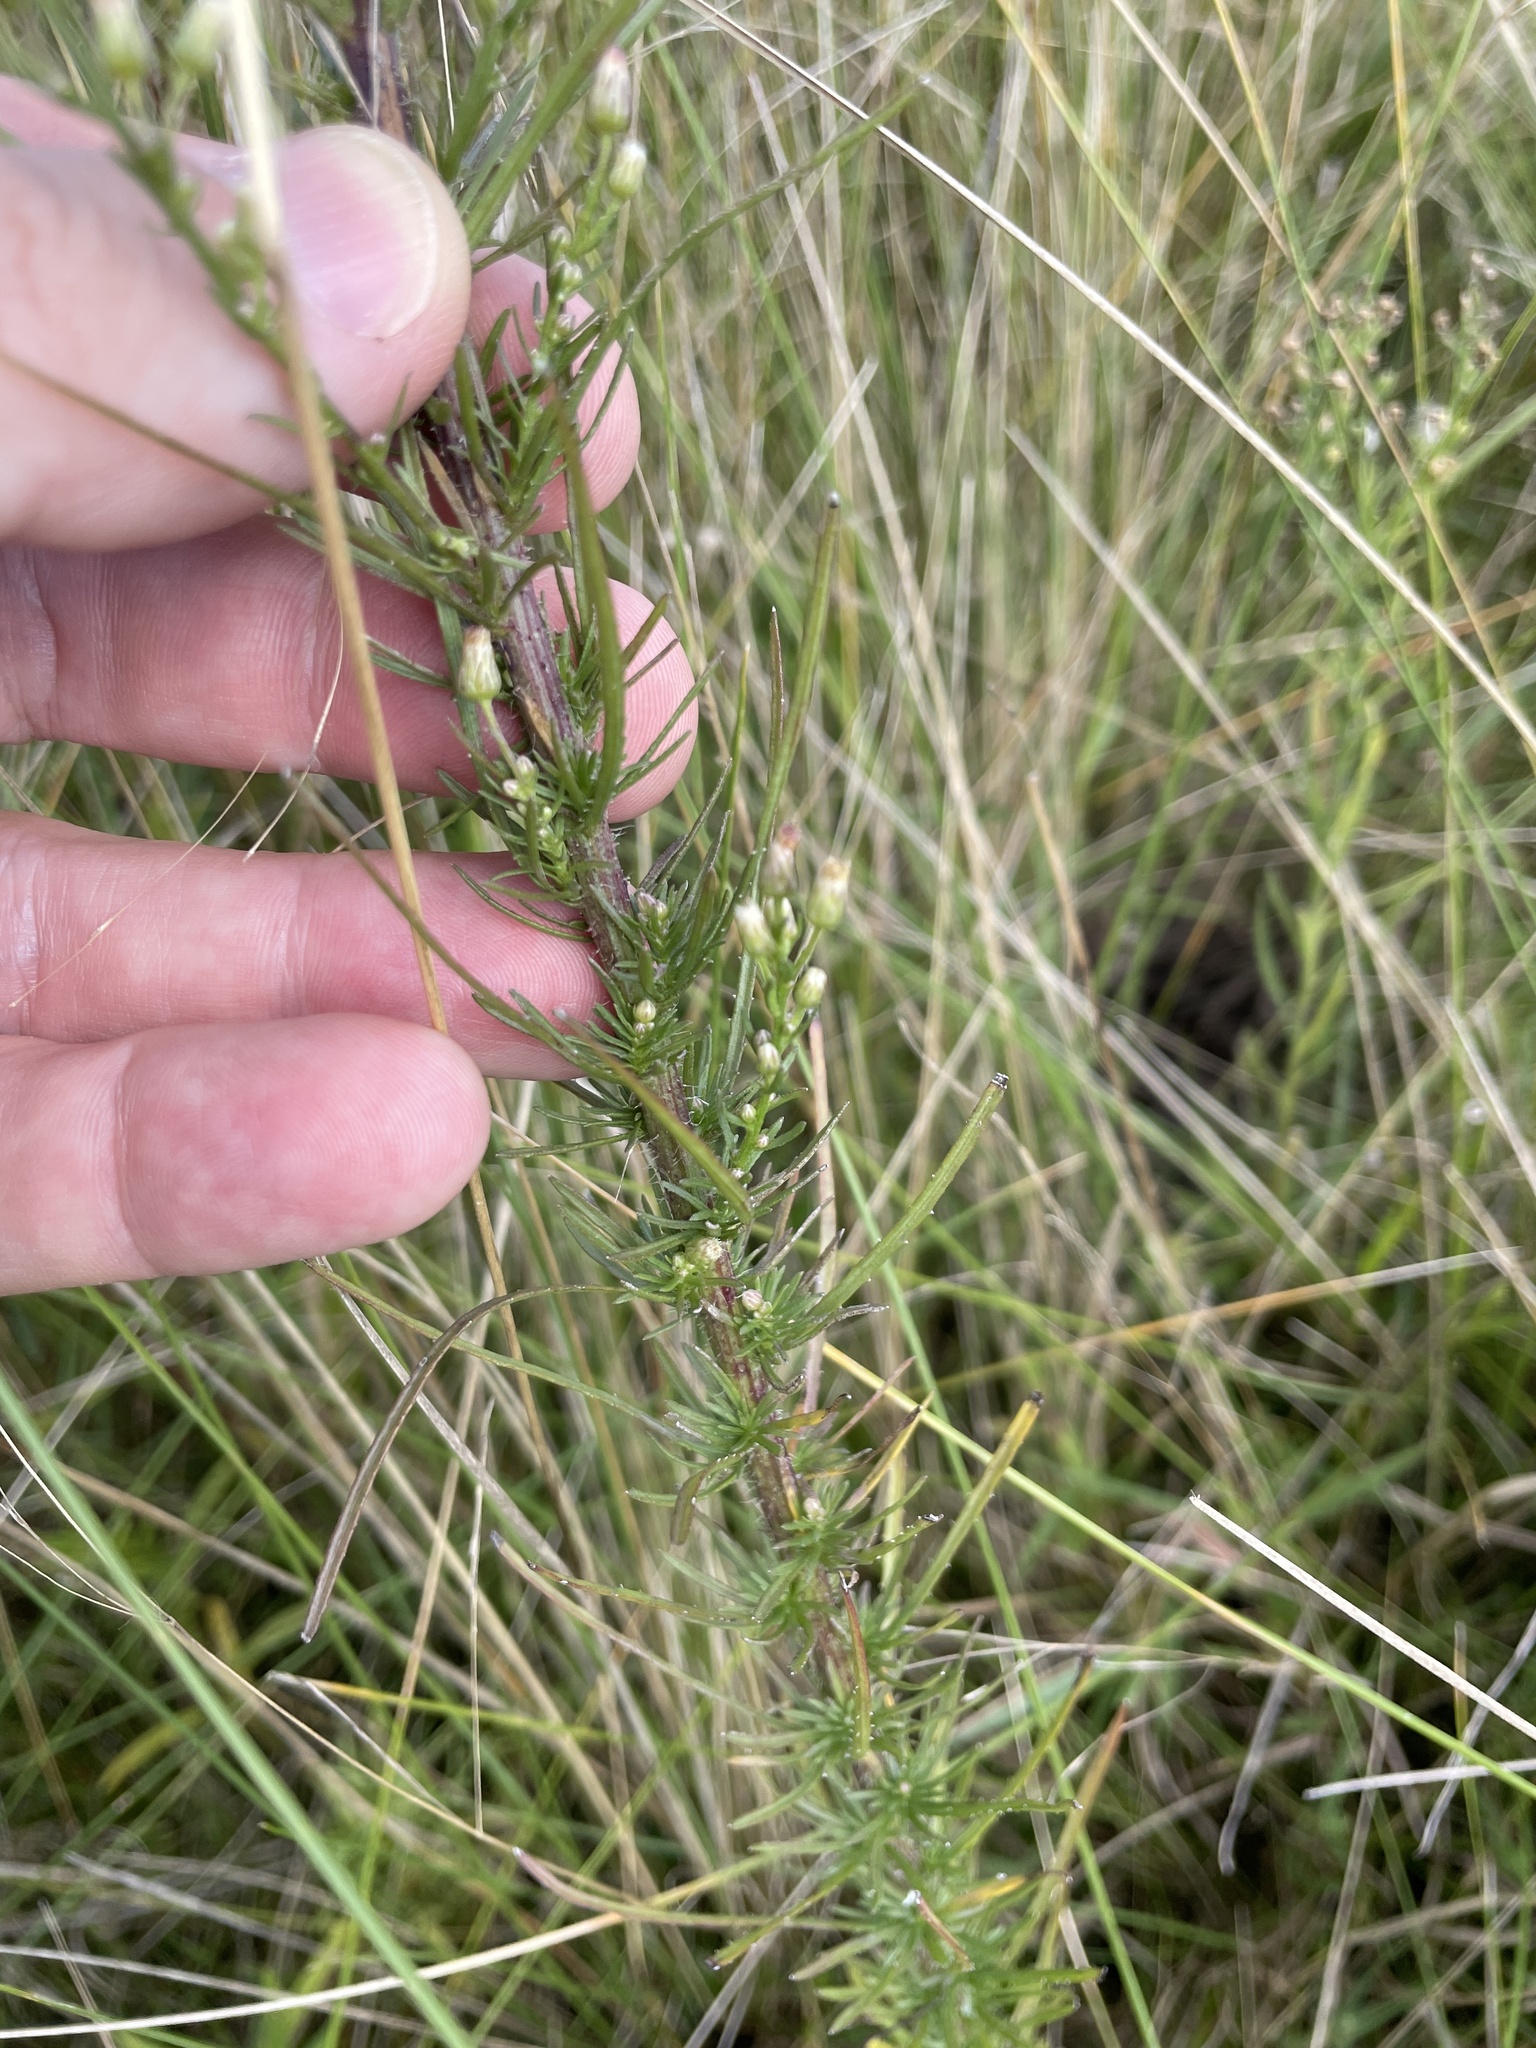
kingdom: Plantae
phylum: Tracheophyta
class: Magnoliopsida
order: Asterales
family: Asteraceae
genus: Erigeron
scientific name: Erigeron blakei
